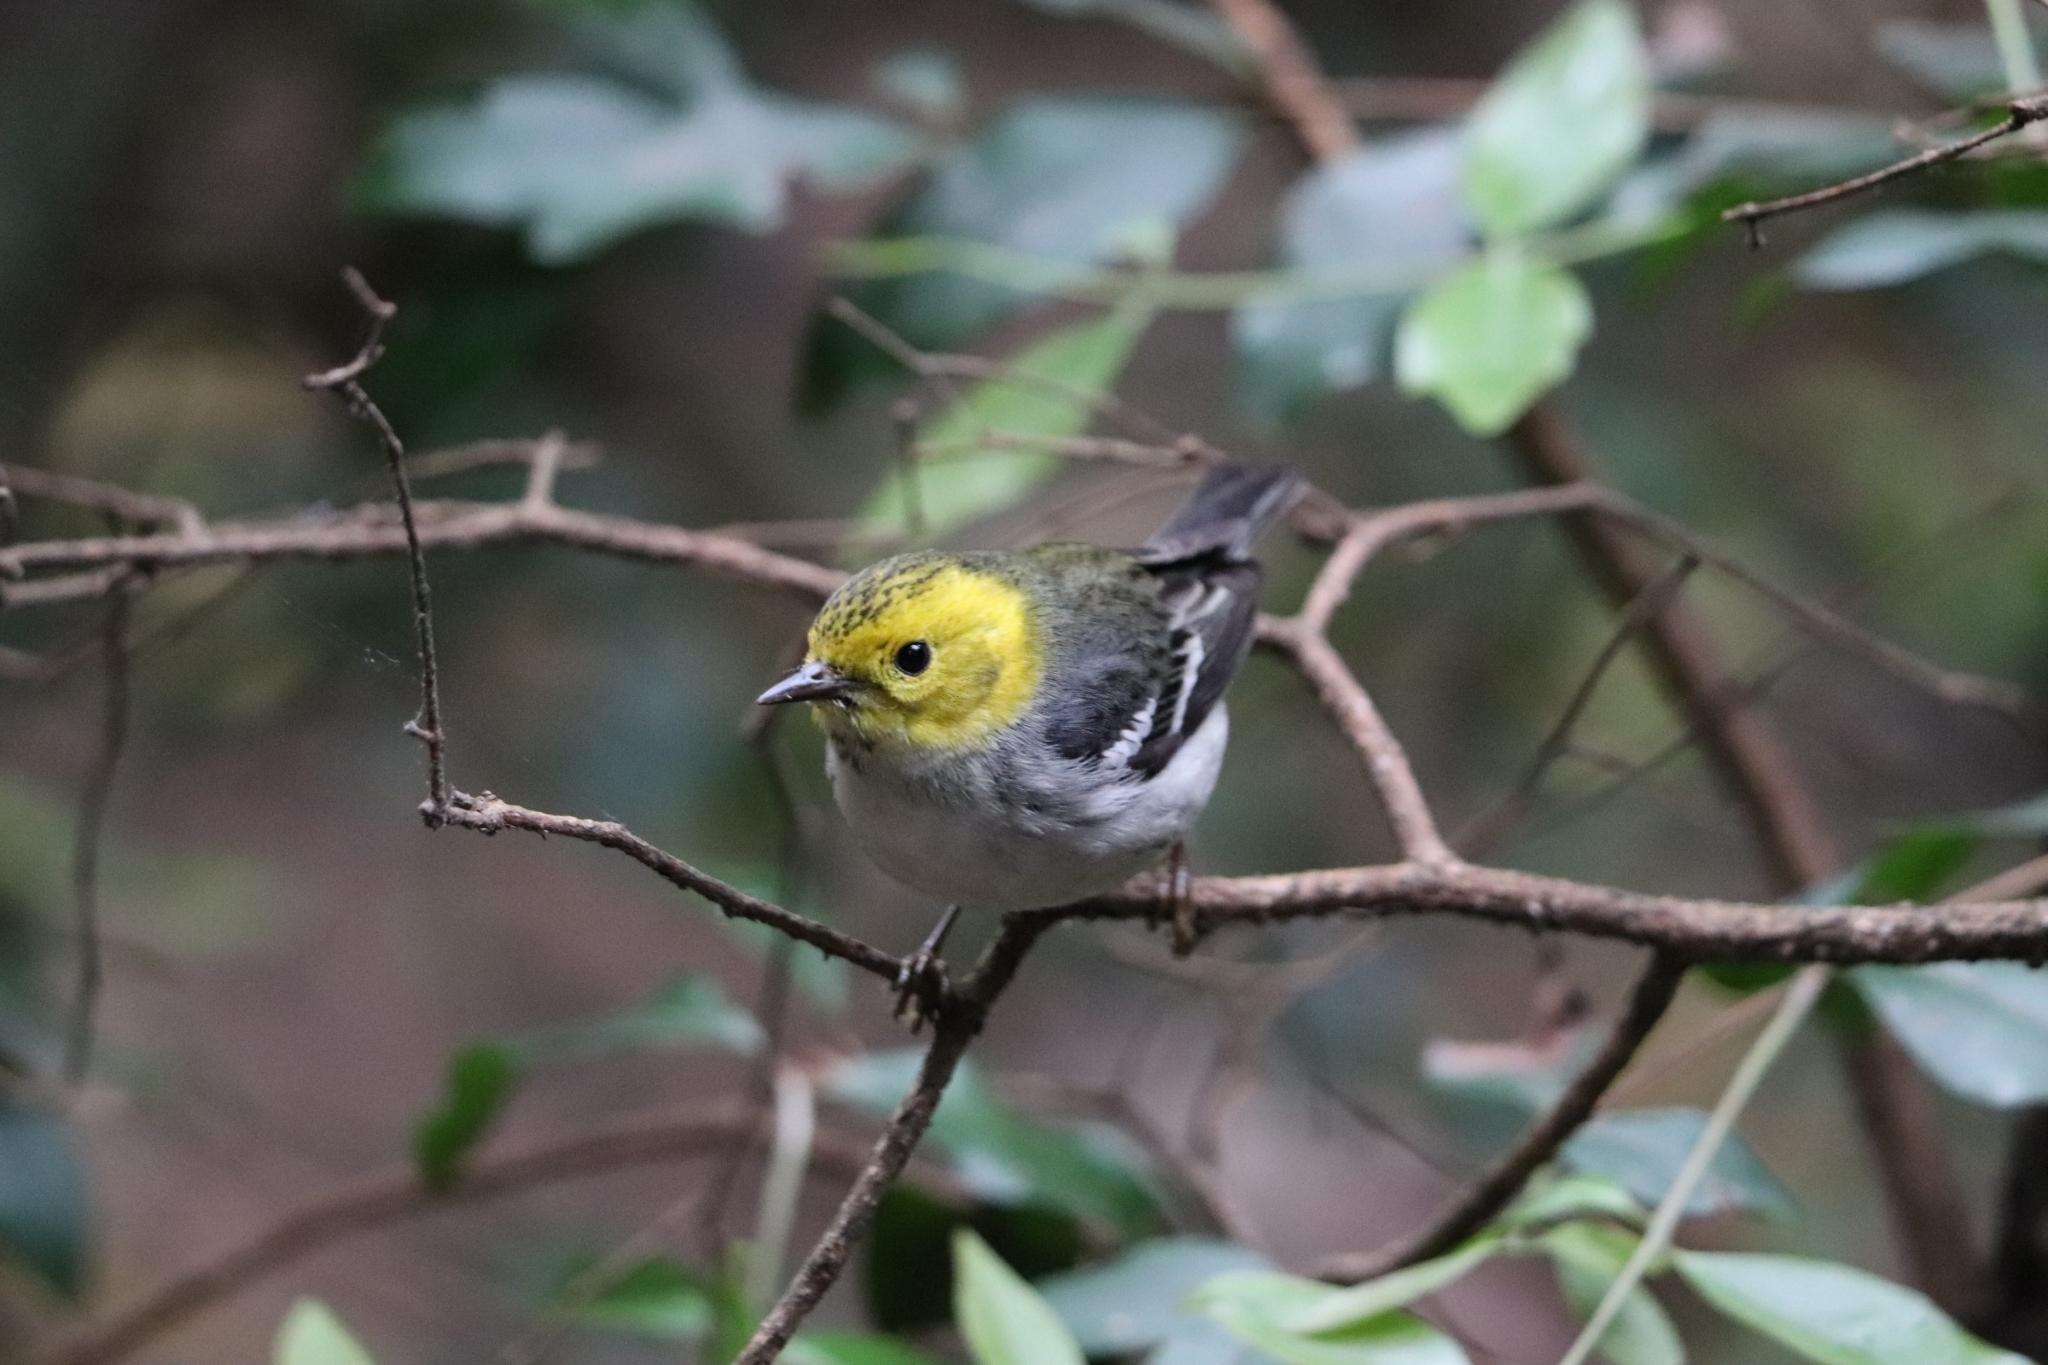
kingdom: Animalia
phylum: Chordata
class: Aves
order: Passeriformes
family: Parulidae
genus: Setophaga
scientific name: Setophaga occidentalis
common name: Hermit warbler
